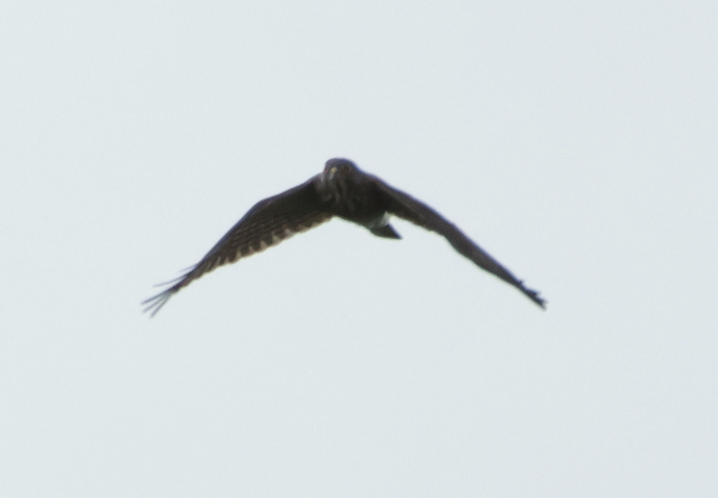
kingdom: Animalia
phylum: Chordata
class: Aves
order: Accipitriformes
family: Accipitridae
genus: Accipiter
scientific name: Accipiter virgatus
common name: Besra
